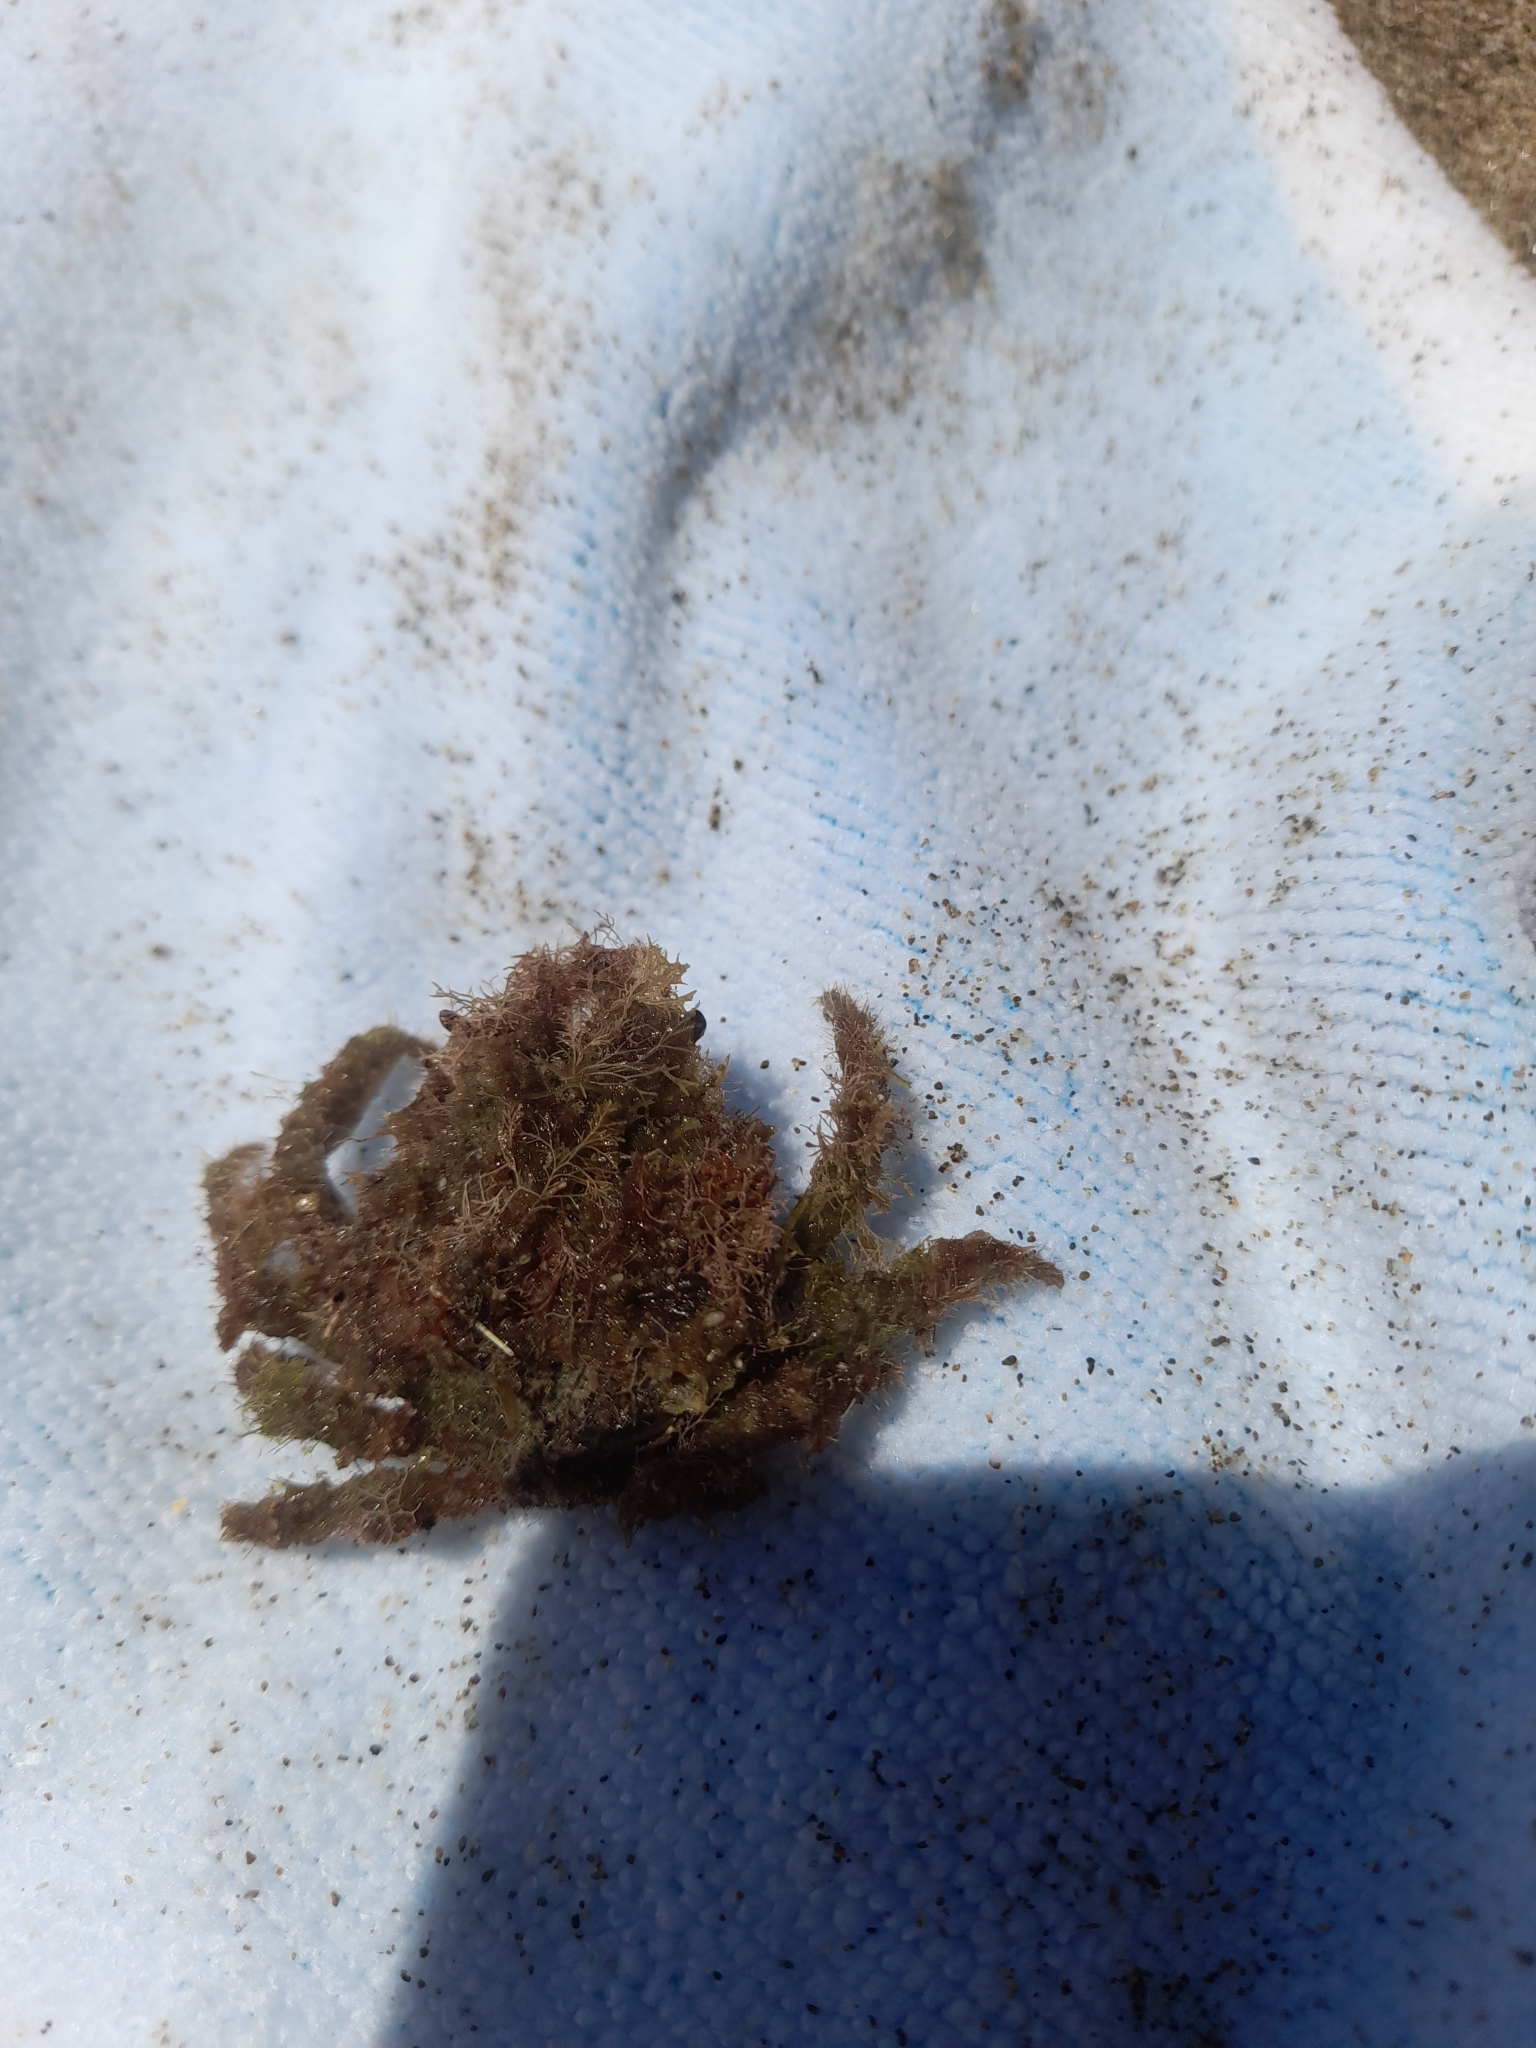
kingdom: Animalia
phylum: Arthropoda
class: Malacostraca
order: Decapoda
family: Majidae
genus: Maja
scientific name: Maja crispata
